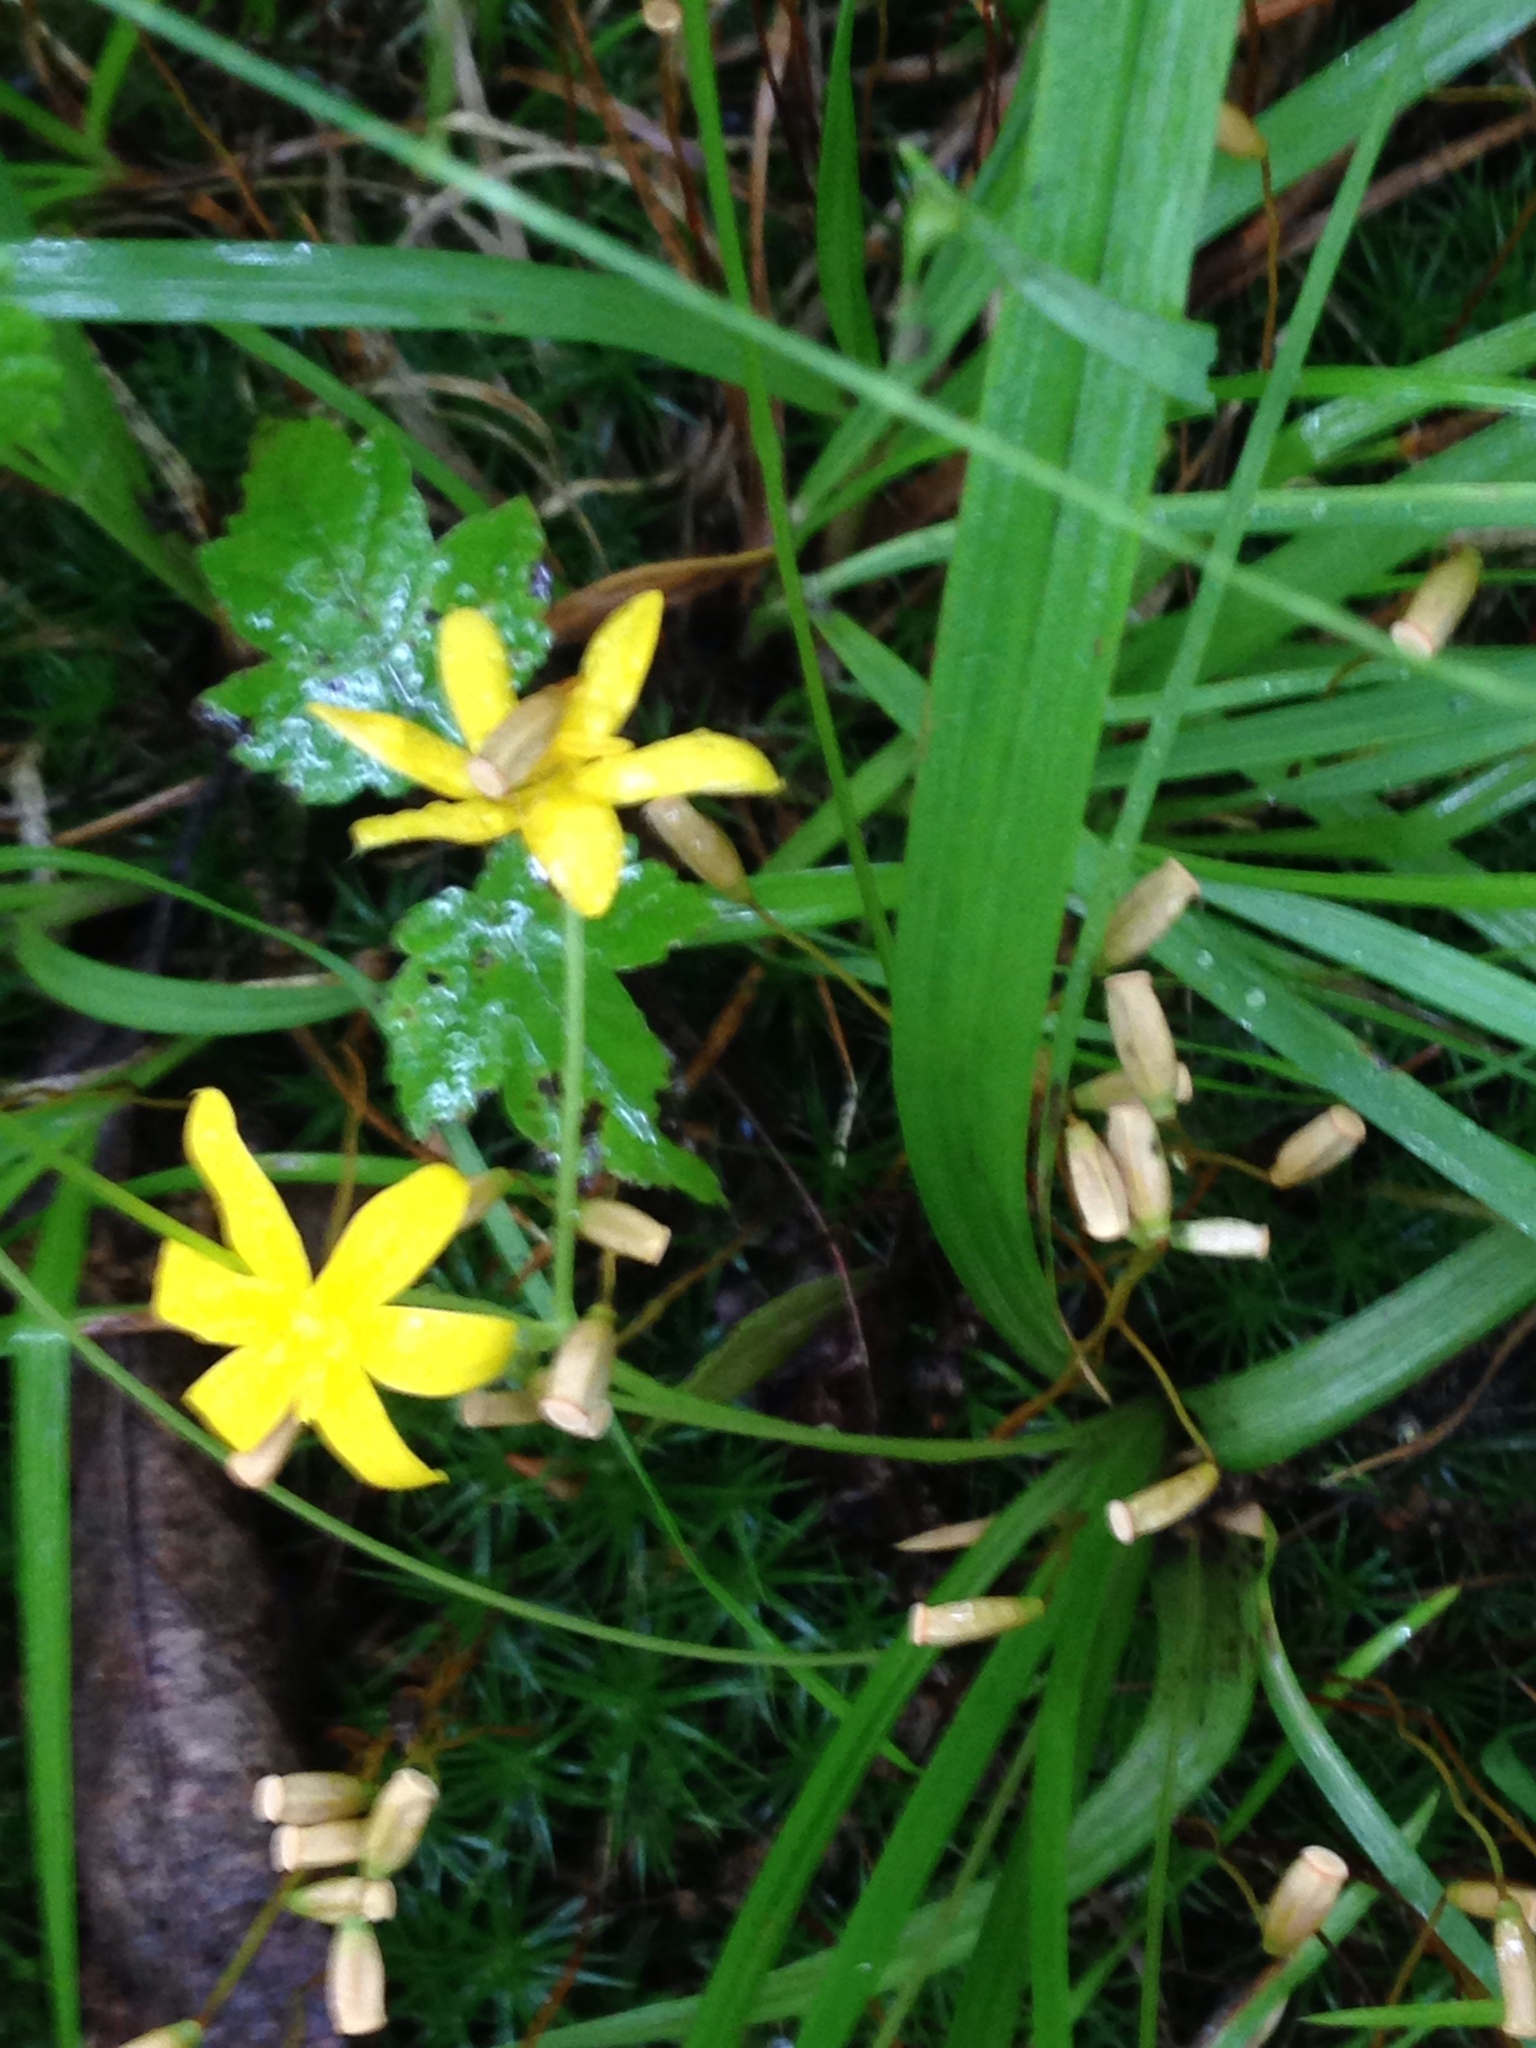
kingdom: Plantae
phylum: Tracheophyta
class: Liliopsida
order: Asparagales
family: Hypoxidaceae
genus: Hypoxis
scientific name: Hypoxis hirsuta
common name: Common goldstar
